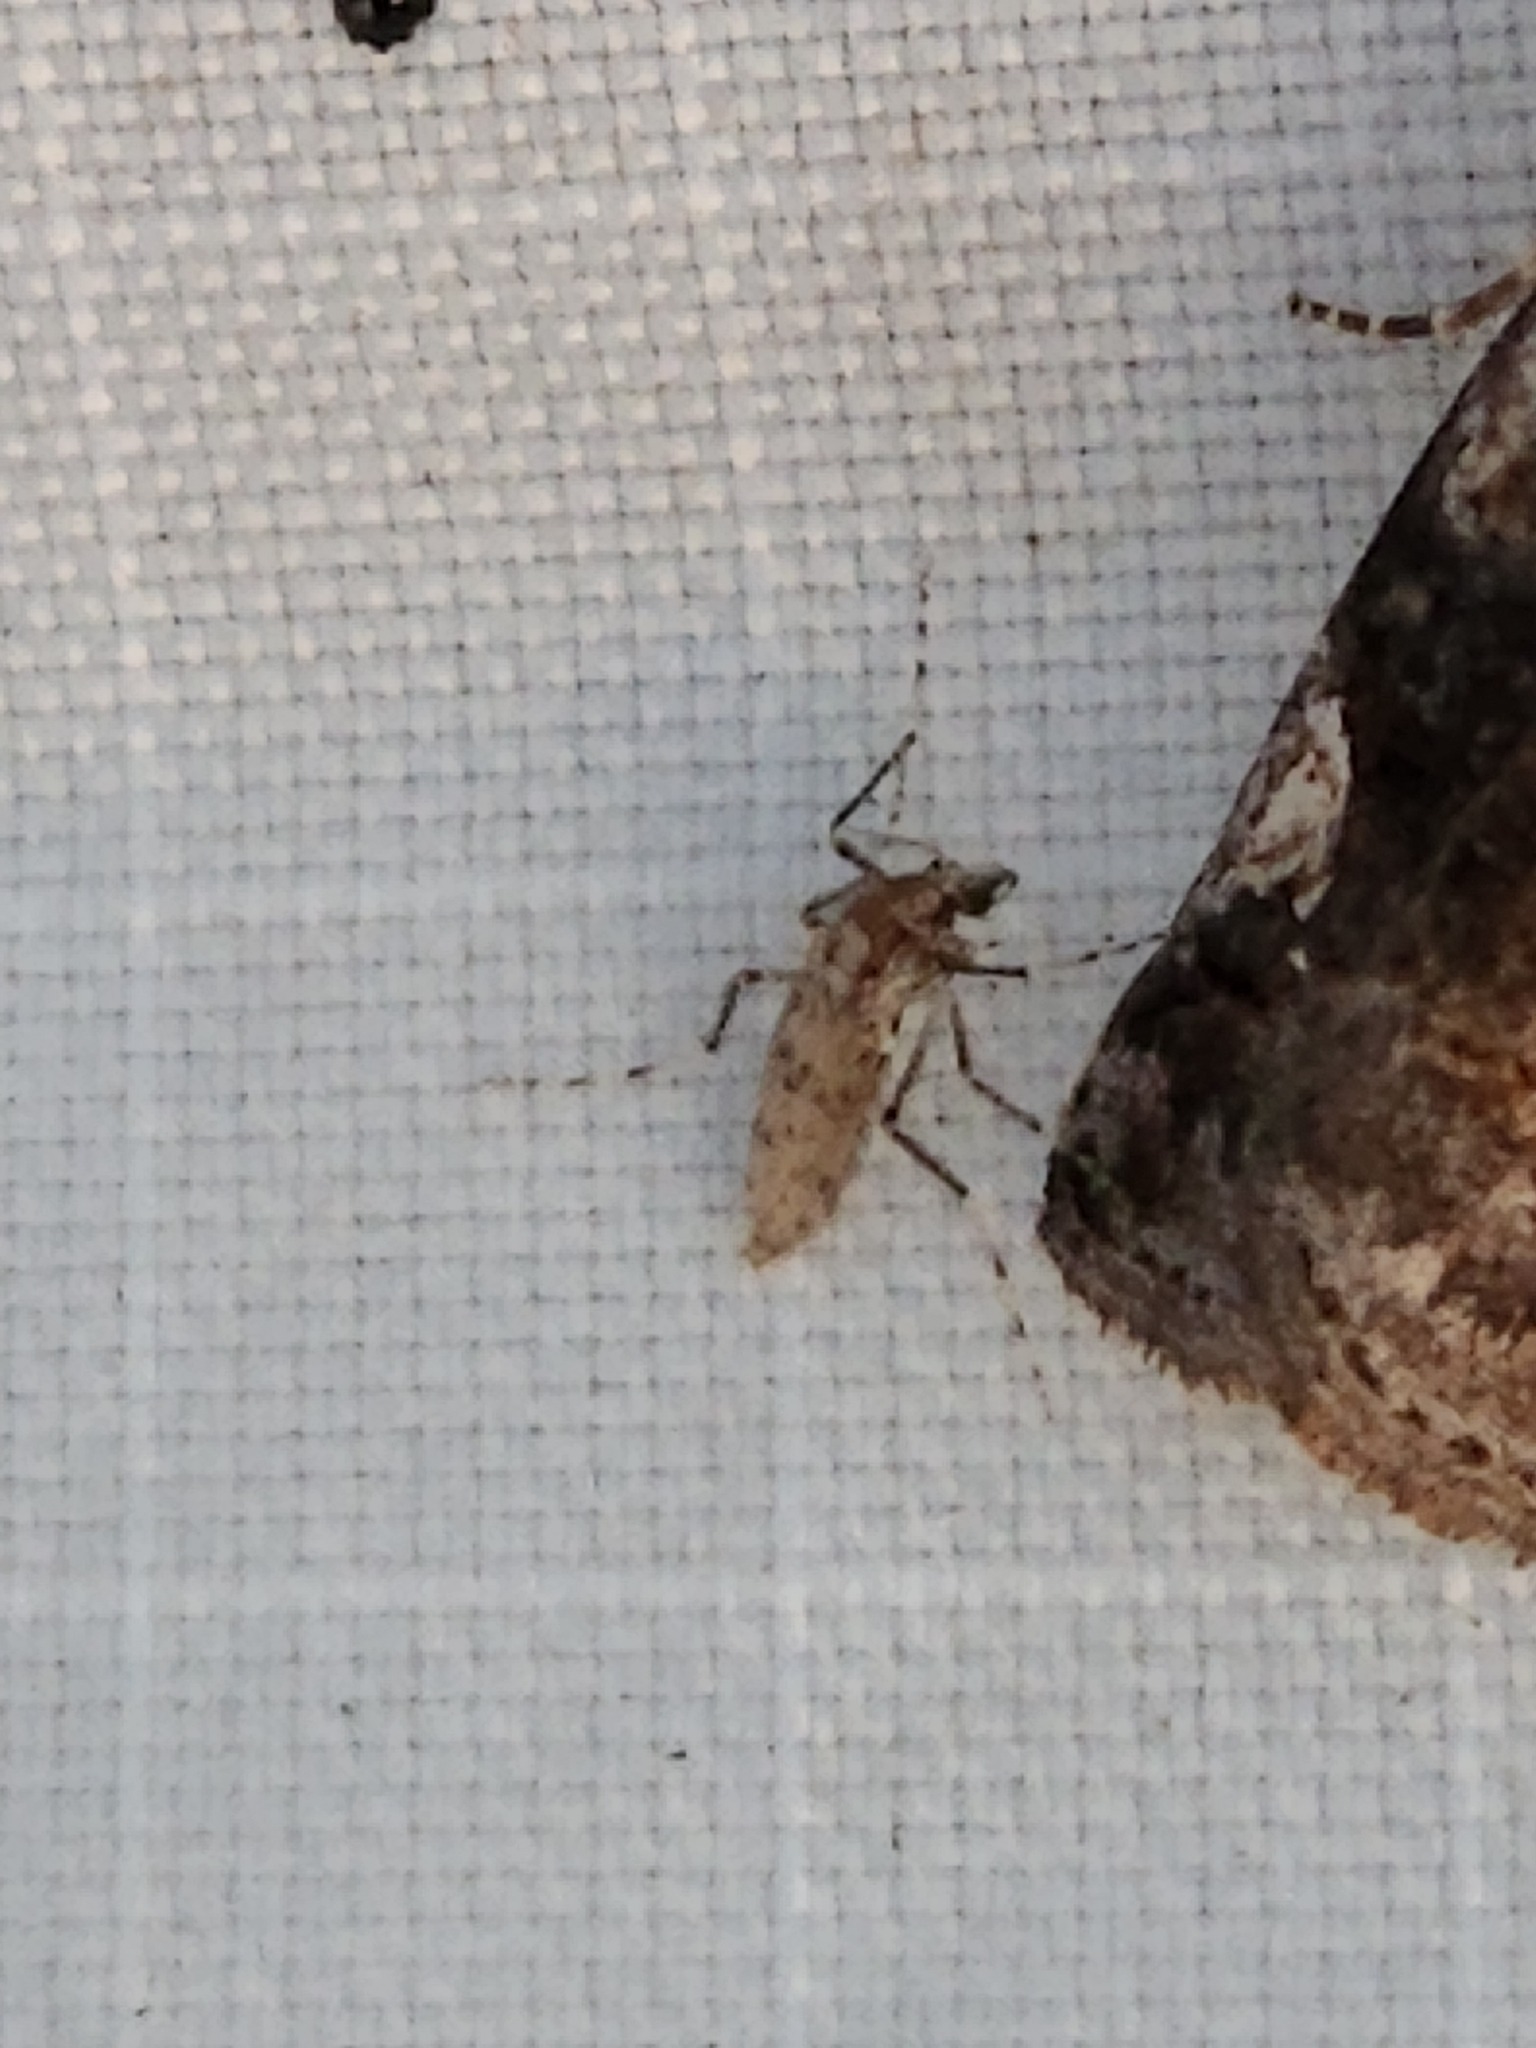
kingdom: Animalia
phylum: Arthropoda
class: Insecta
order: Diptera
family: Chaoboridae
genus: Chaoborus
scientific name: Chaoborus punctipennis
